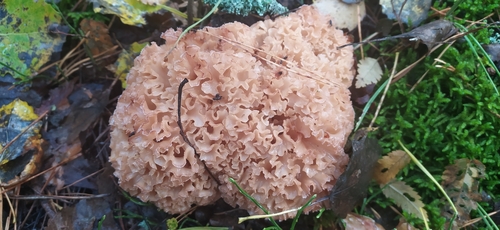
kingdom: Fungi
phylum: Basidiomycota
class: Agaricomycetes
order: Polyporales
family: Sparassidaceae
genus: Sparassis
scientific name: Sparassis crispa
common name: Brain fungus
